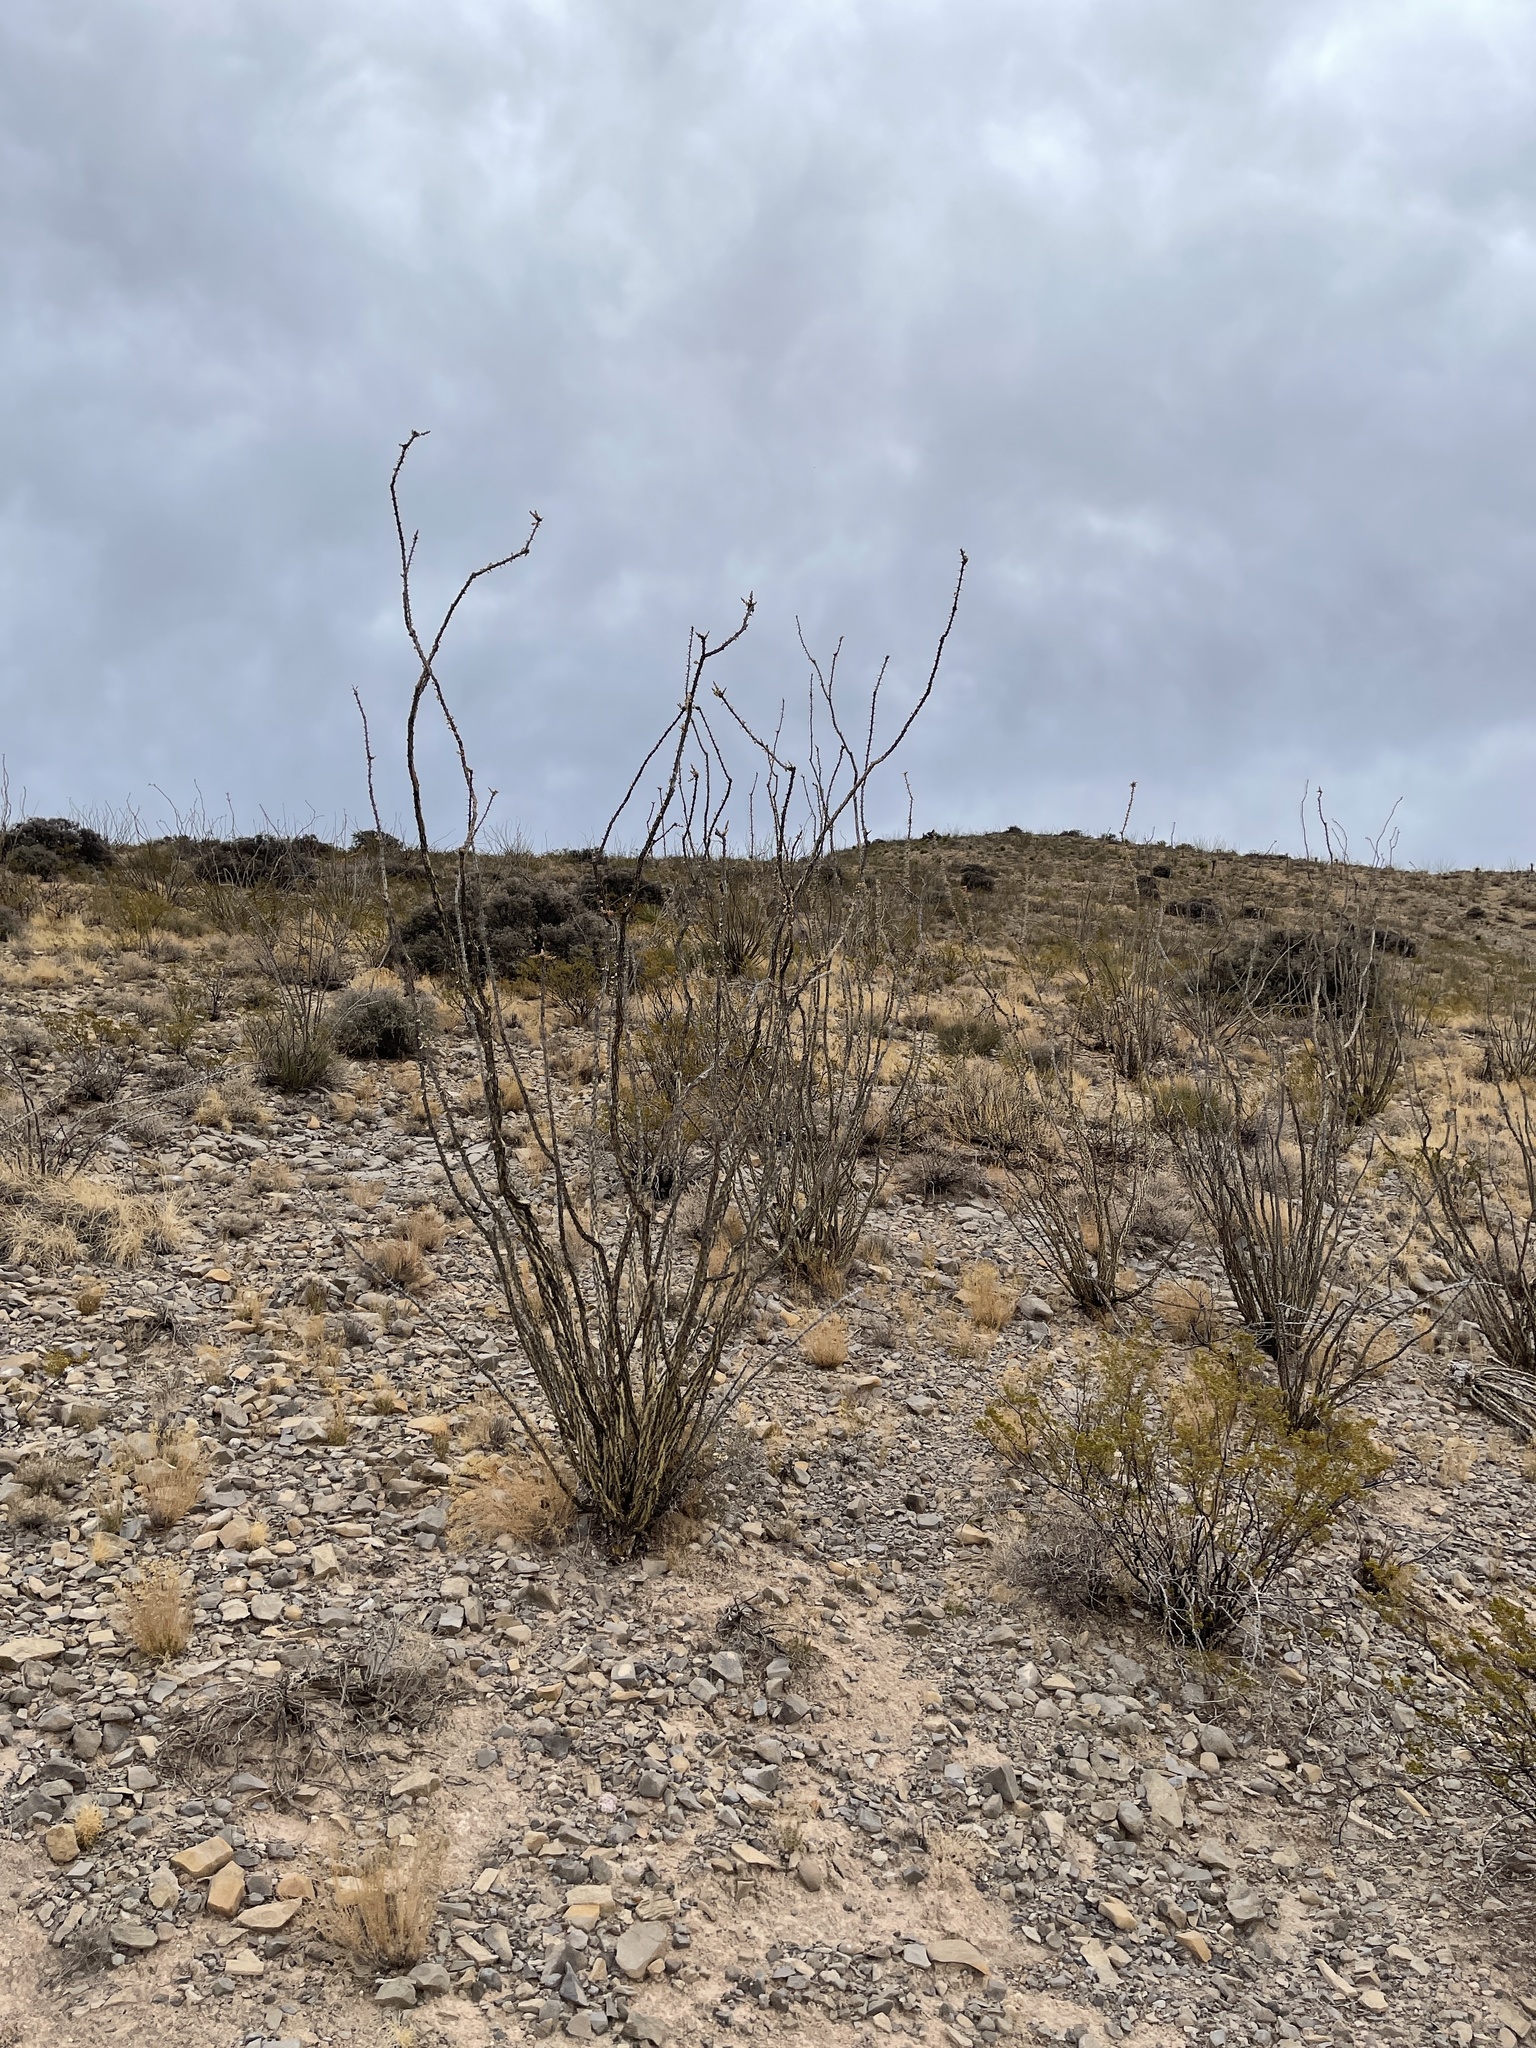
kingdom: Plantae
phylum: Tracheophyta
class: Magnoliopsida
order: Ericales
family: Fouquieriaceae
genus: Fouquieria
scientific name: Fouquieria splendens
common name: Vine-cactus
